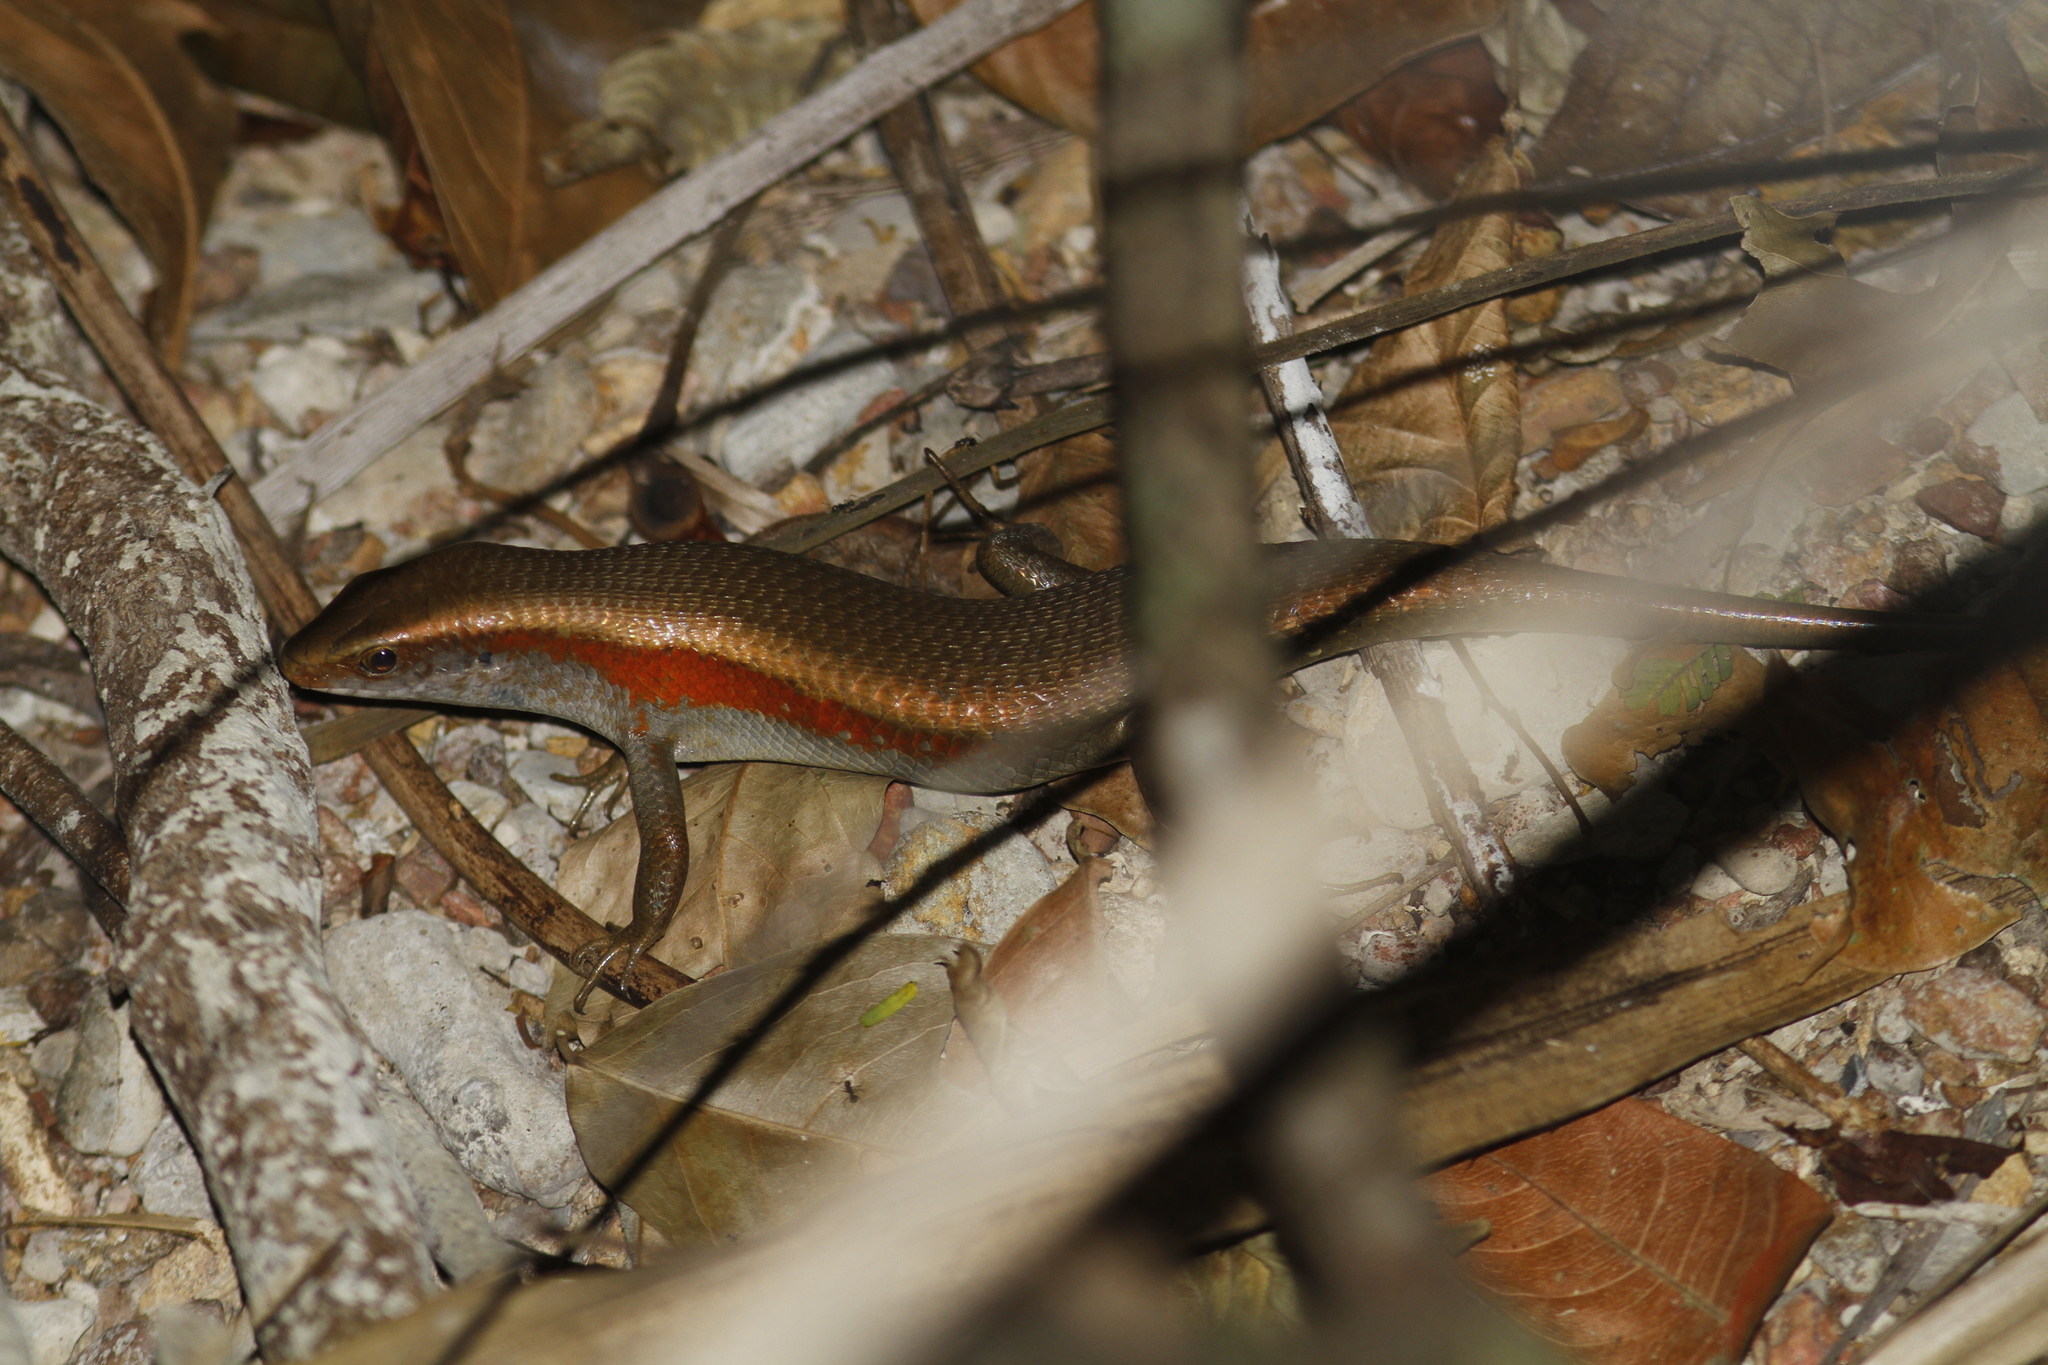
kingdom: Animalia
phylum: Chordata
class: Squamata
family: Scincidae
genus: Eutropis
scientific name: Eutropis multifasciata
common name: Common mabuya
